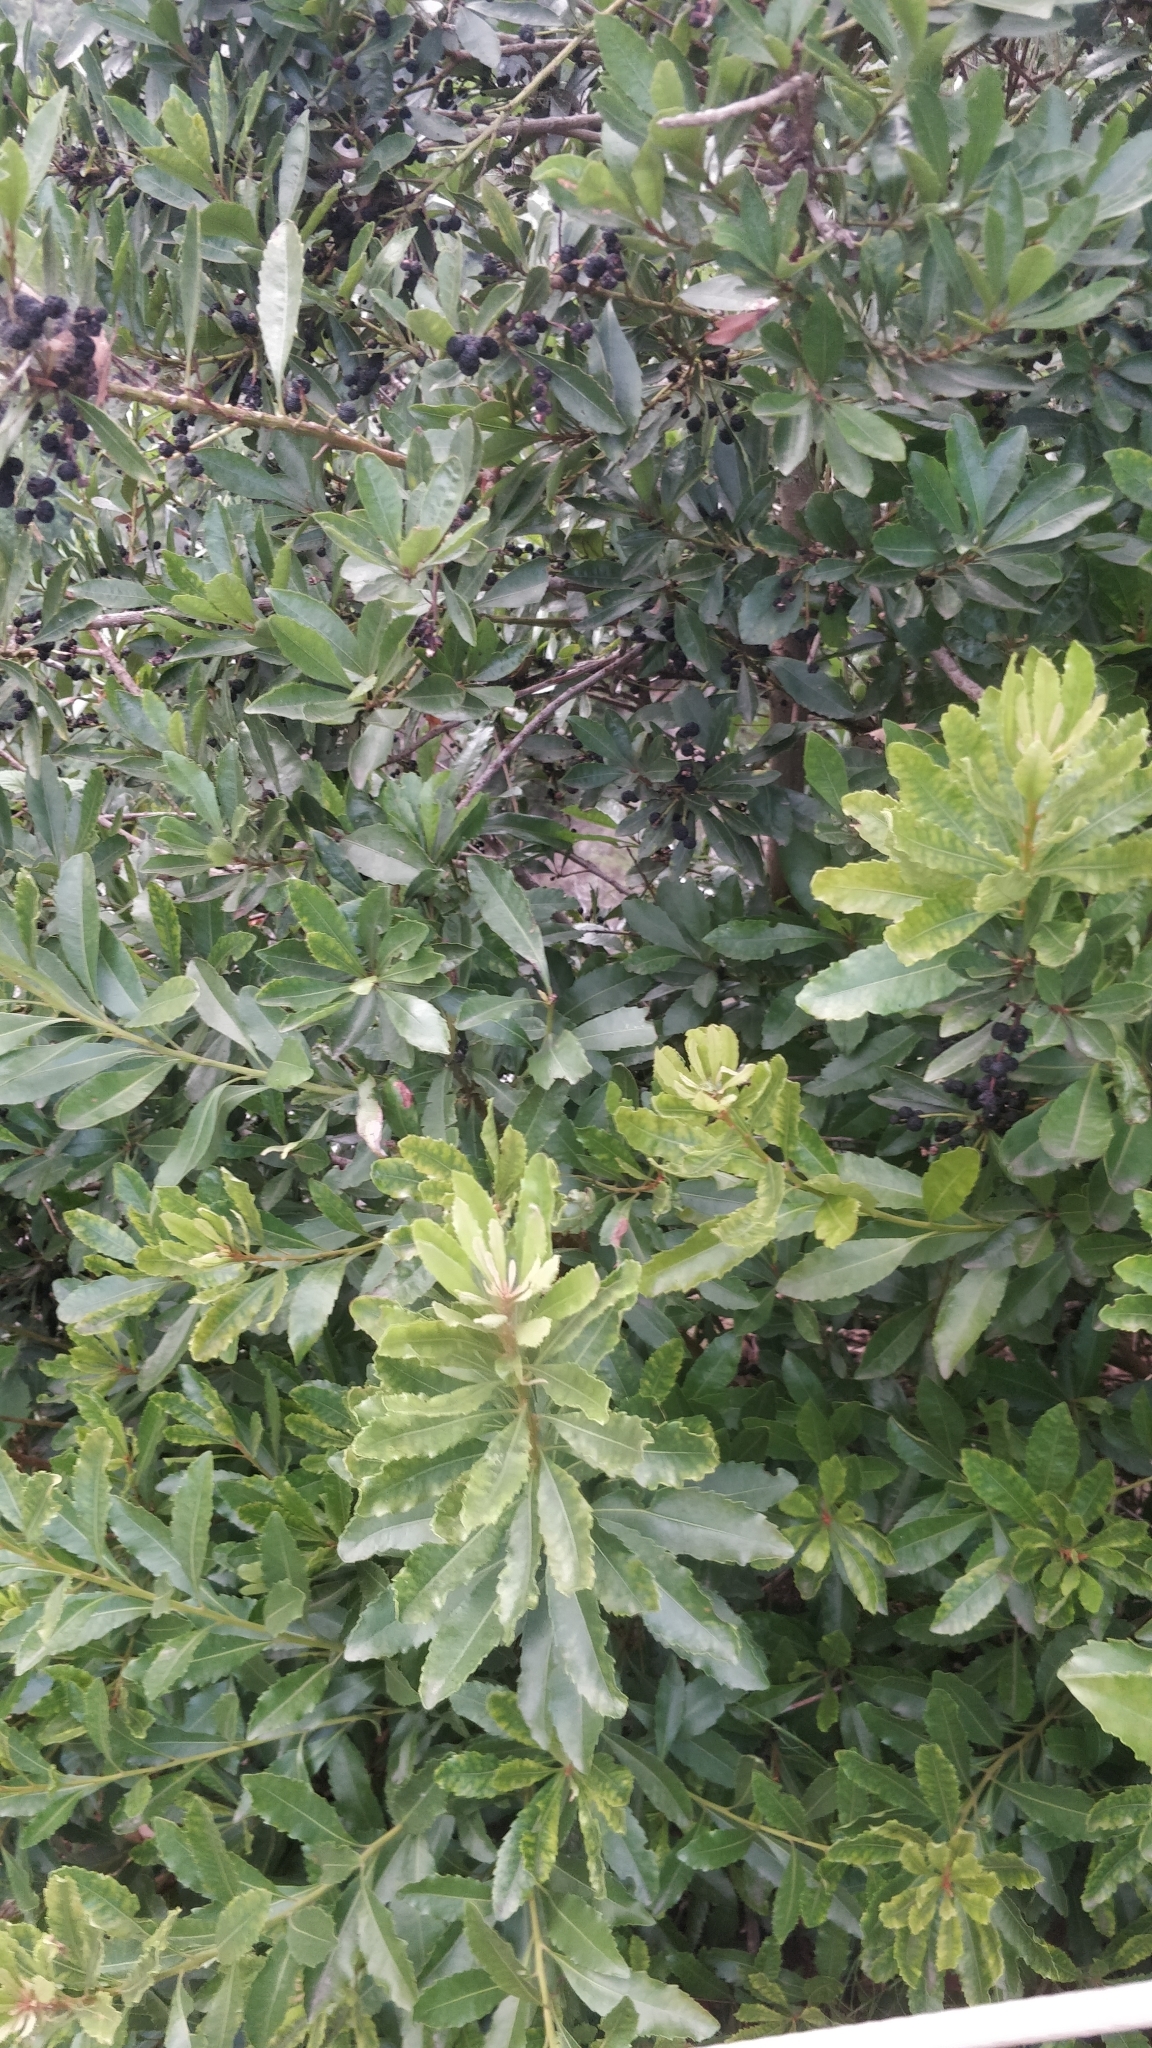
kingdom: Plantae
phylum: Tracheophyta
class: Magnoliopsida
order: Fagales
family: Myricaceae
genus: Morella
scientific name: Morella faya
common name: Firetree
